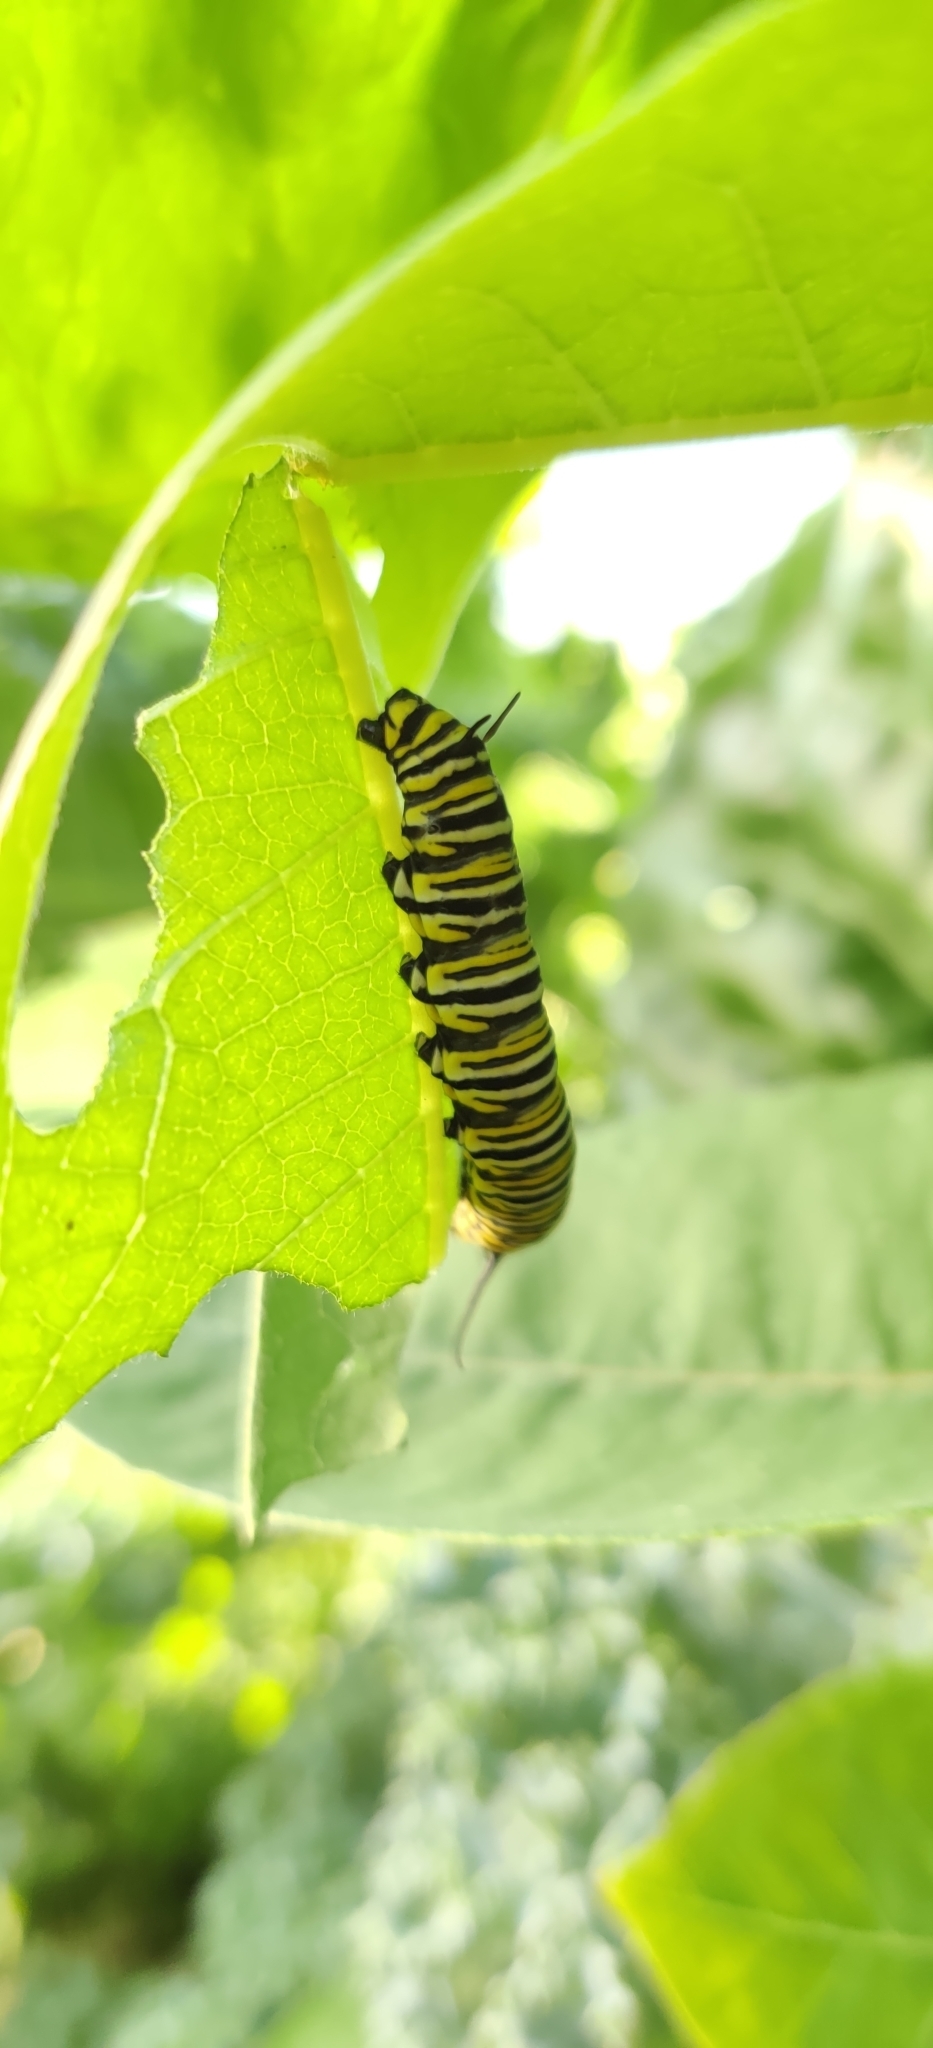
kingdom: Animalia
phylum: Arthropoda
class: Insecta
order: Lepidoptera
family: Nymphalidae
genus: Danaus
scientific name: Danaus plexippus
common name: Monarch
